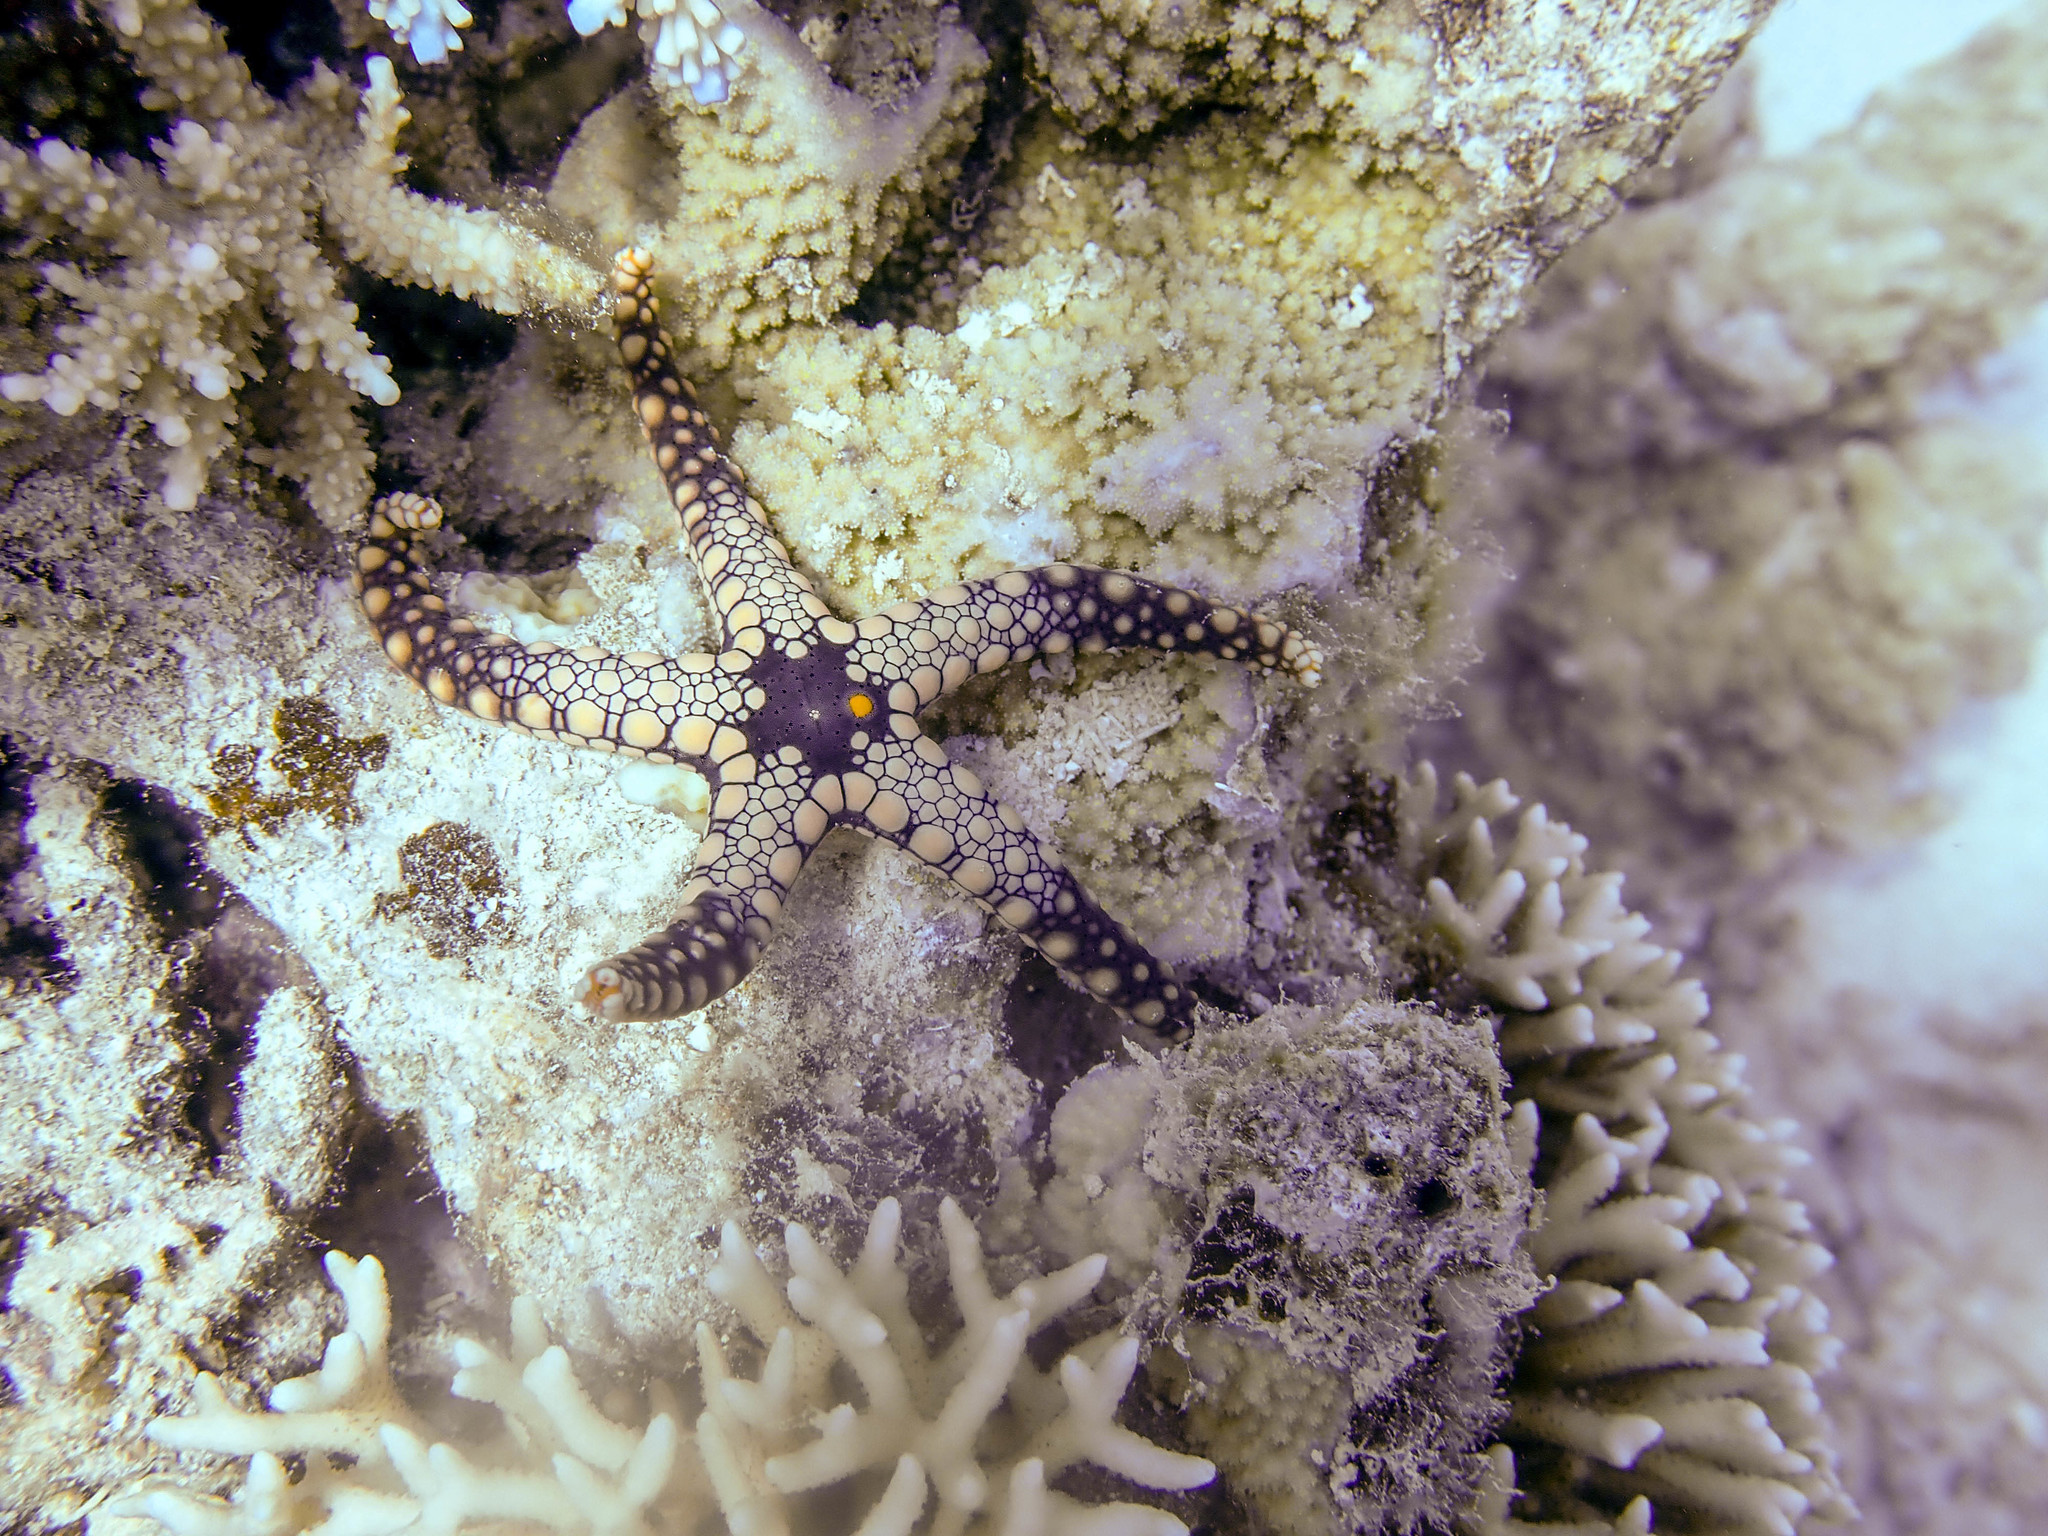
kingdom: Animalia
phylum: Echinodermata
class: Asteroidea
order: Valvatida
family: Goniasteridae
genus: Fromia
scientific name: Fromia heffernani
